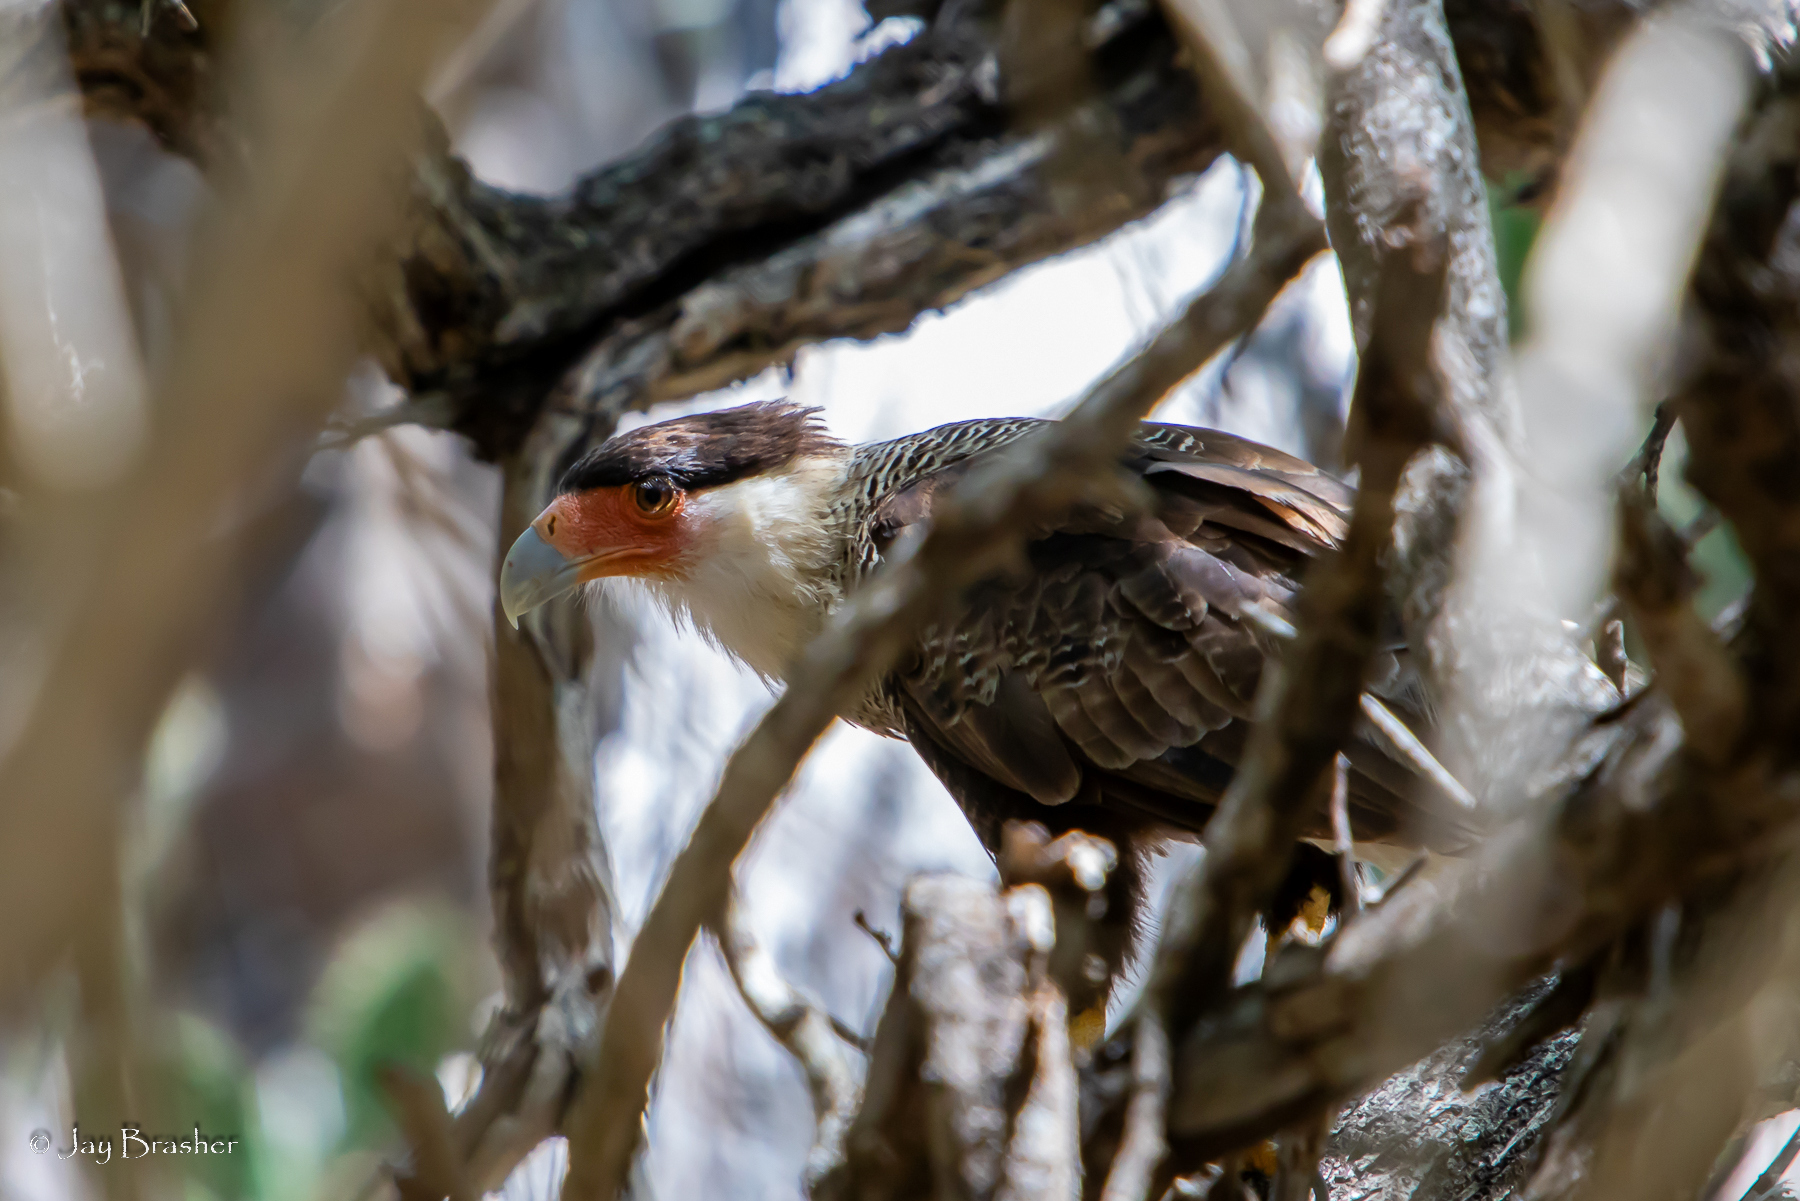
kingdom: Animalia
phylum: Chordata
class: Aves
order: Falconiformes
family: Falconidae
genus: Caracara
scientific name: Caracara plancus
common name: Southern caracara
